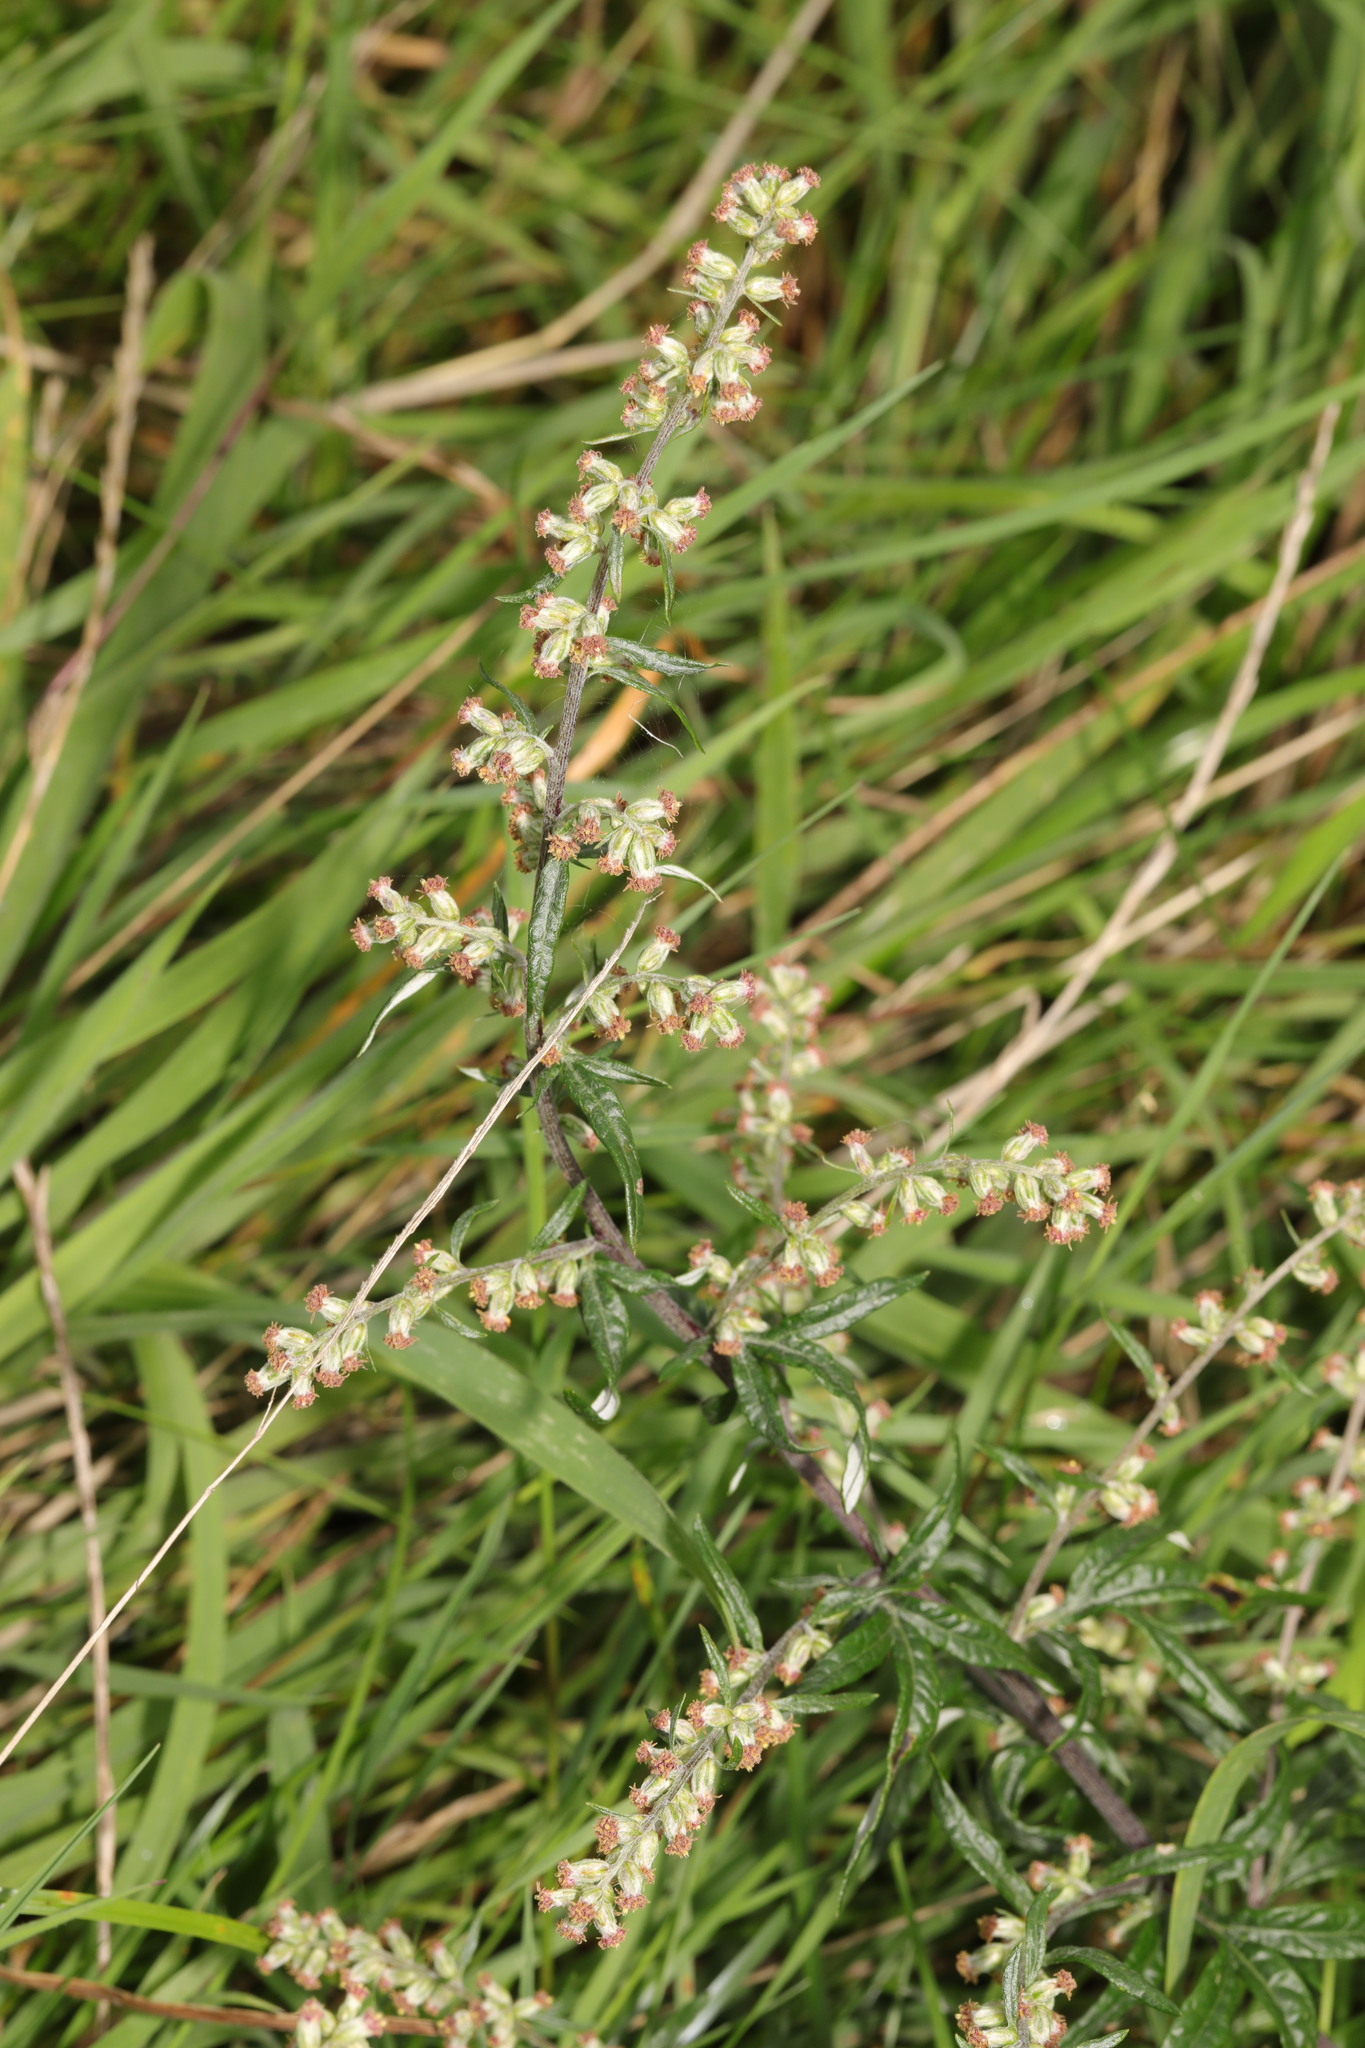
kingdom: Plantae
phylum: Tracheophyta
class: Magnoliopsida
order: Asterales
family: Asteraceae
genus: Artemisia
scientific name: Artemisia vulgaris
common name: Mugwort
